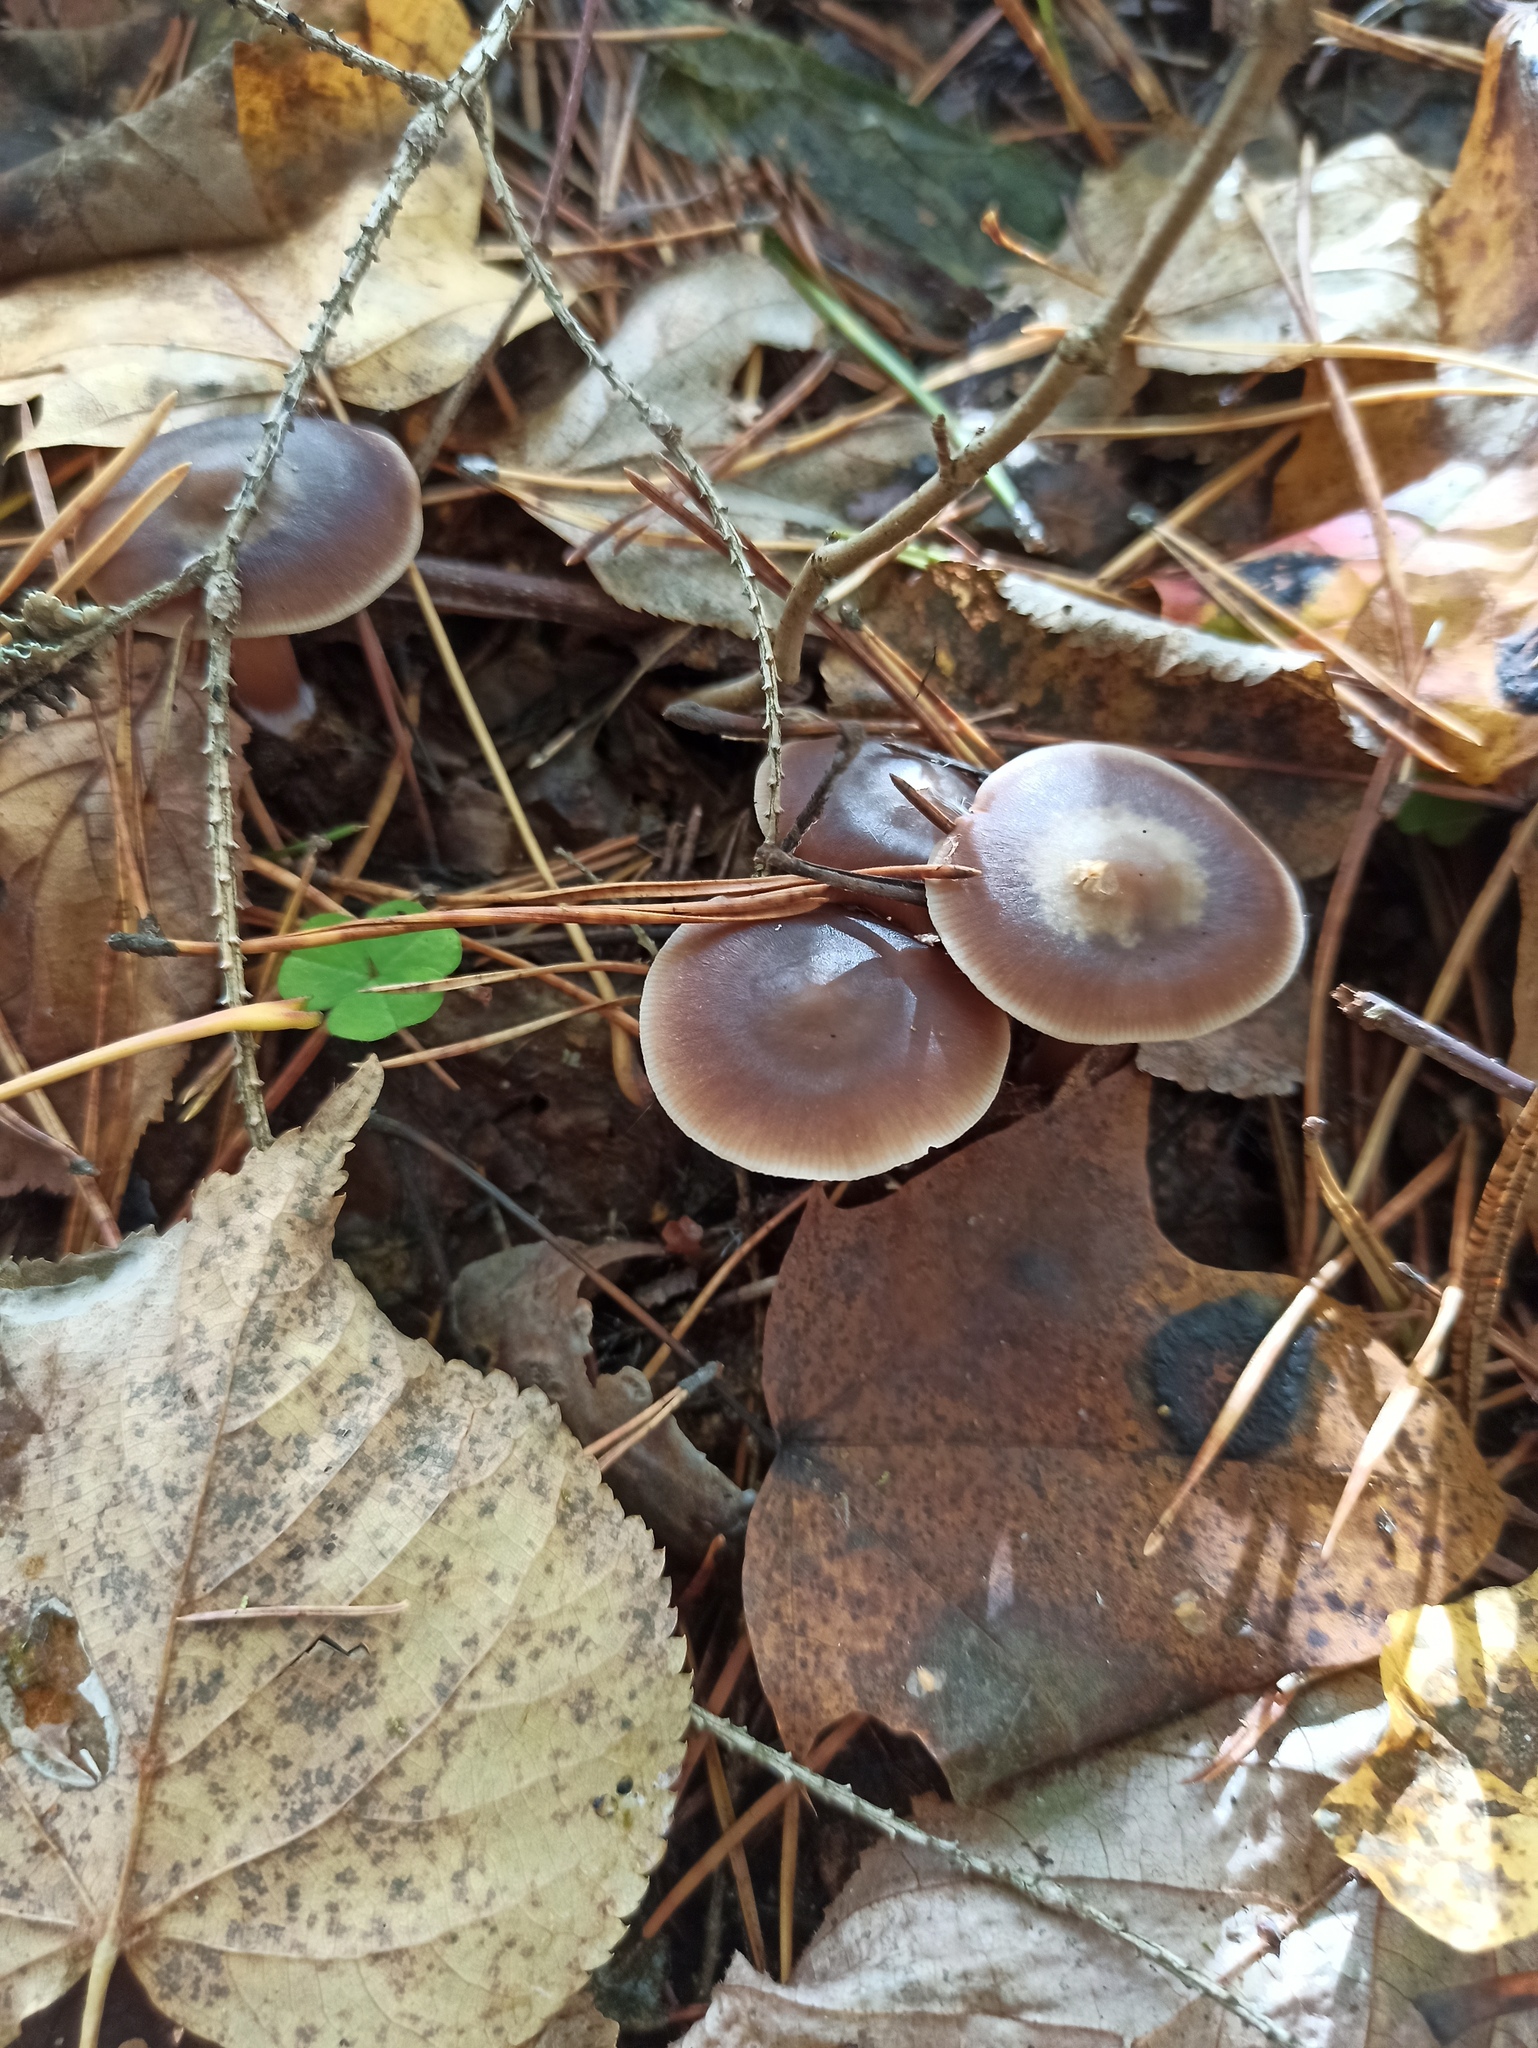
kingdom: Fungi
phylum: Basidiomycota
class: Agaricomycetes
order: Agaricales
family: Omphalotaceae
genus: Rhodocollybia
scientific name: Rhodocollybia butyracea
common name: Butter cap
